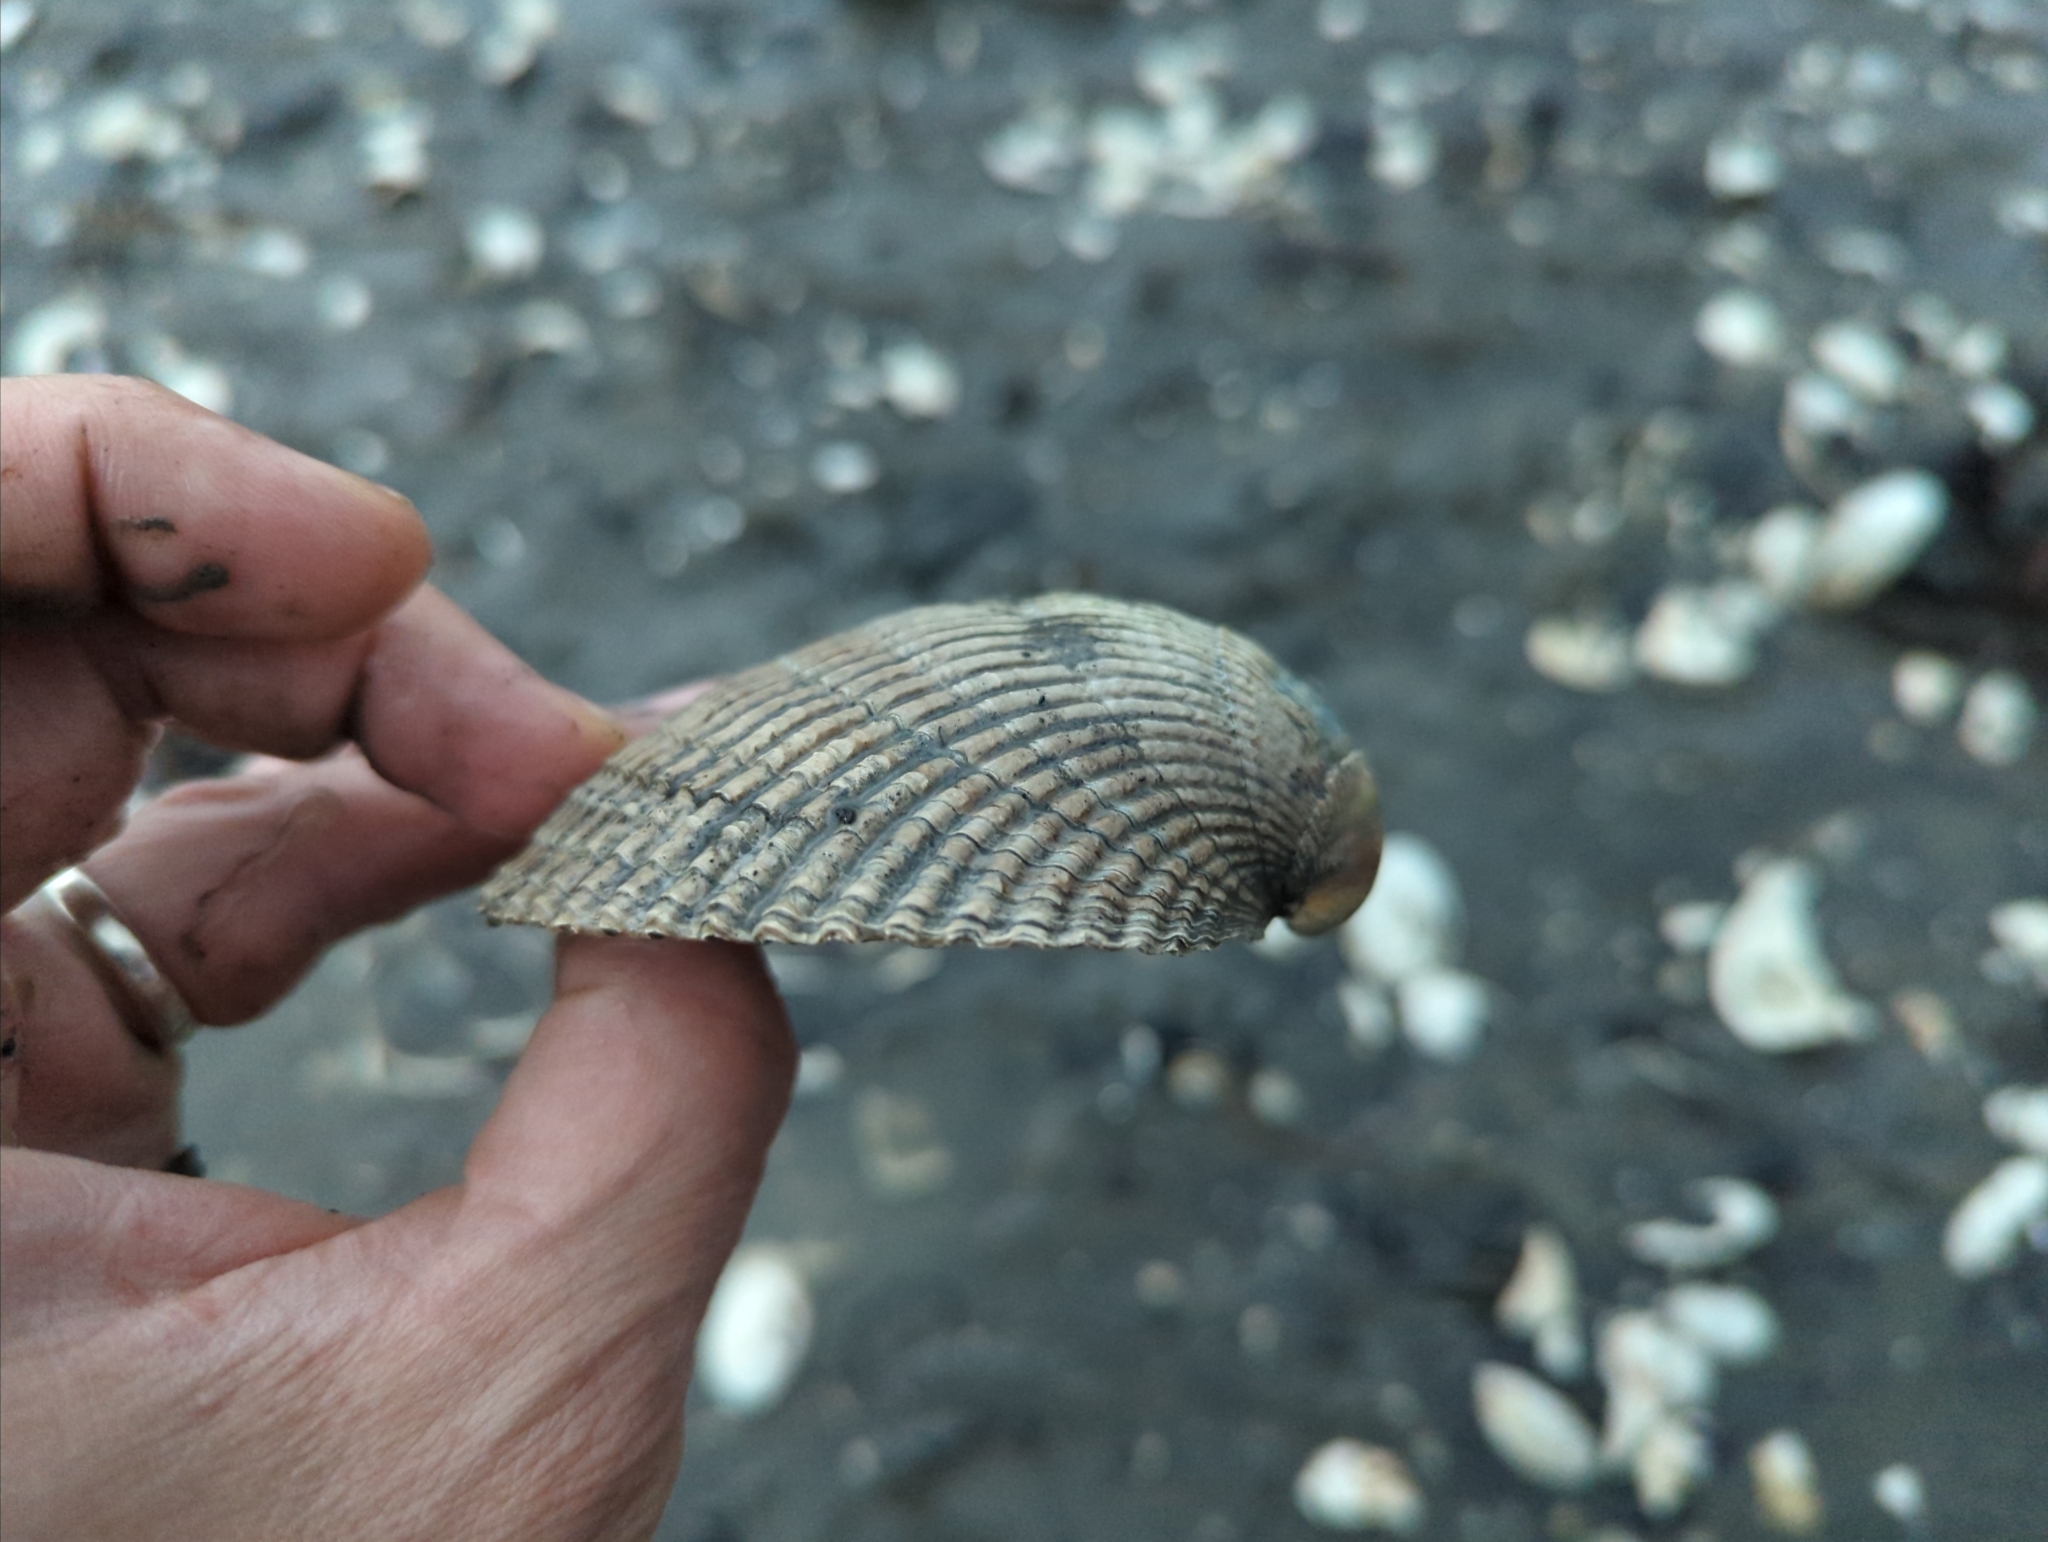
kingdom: Animalia
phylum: Mollusca
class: Bivalvia
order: Cardiida
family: Cardiidae
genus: Clinocardium
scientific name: Clinocardium nuttallii
